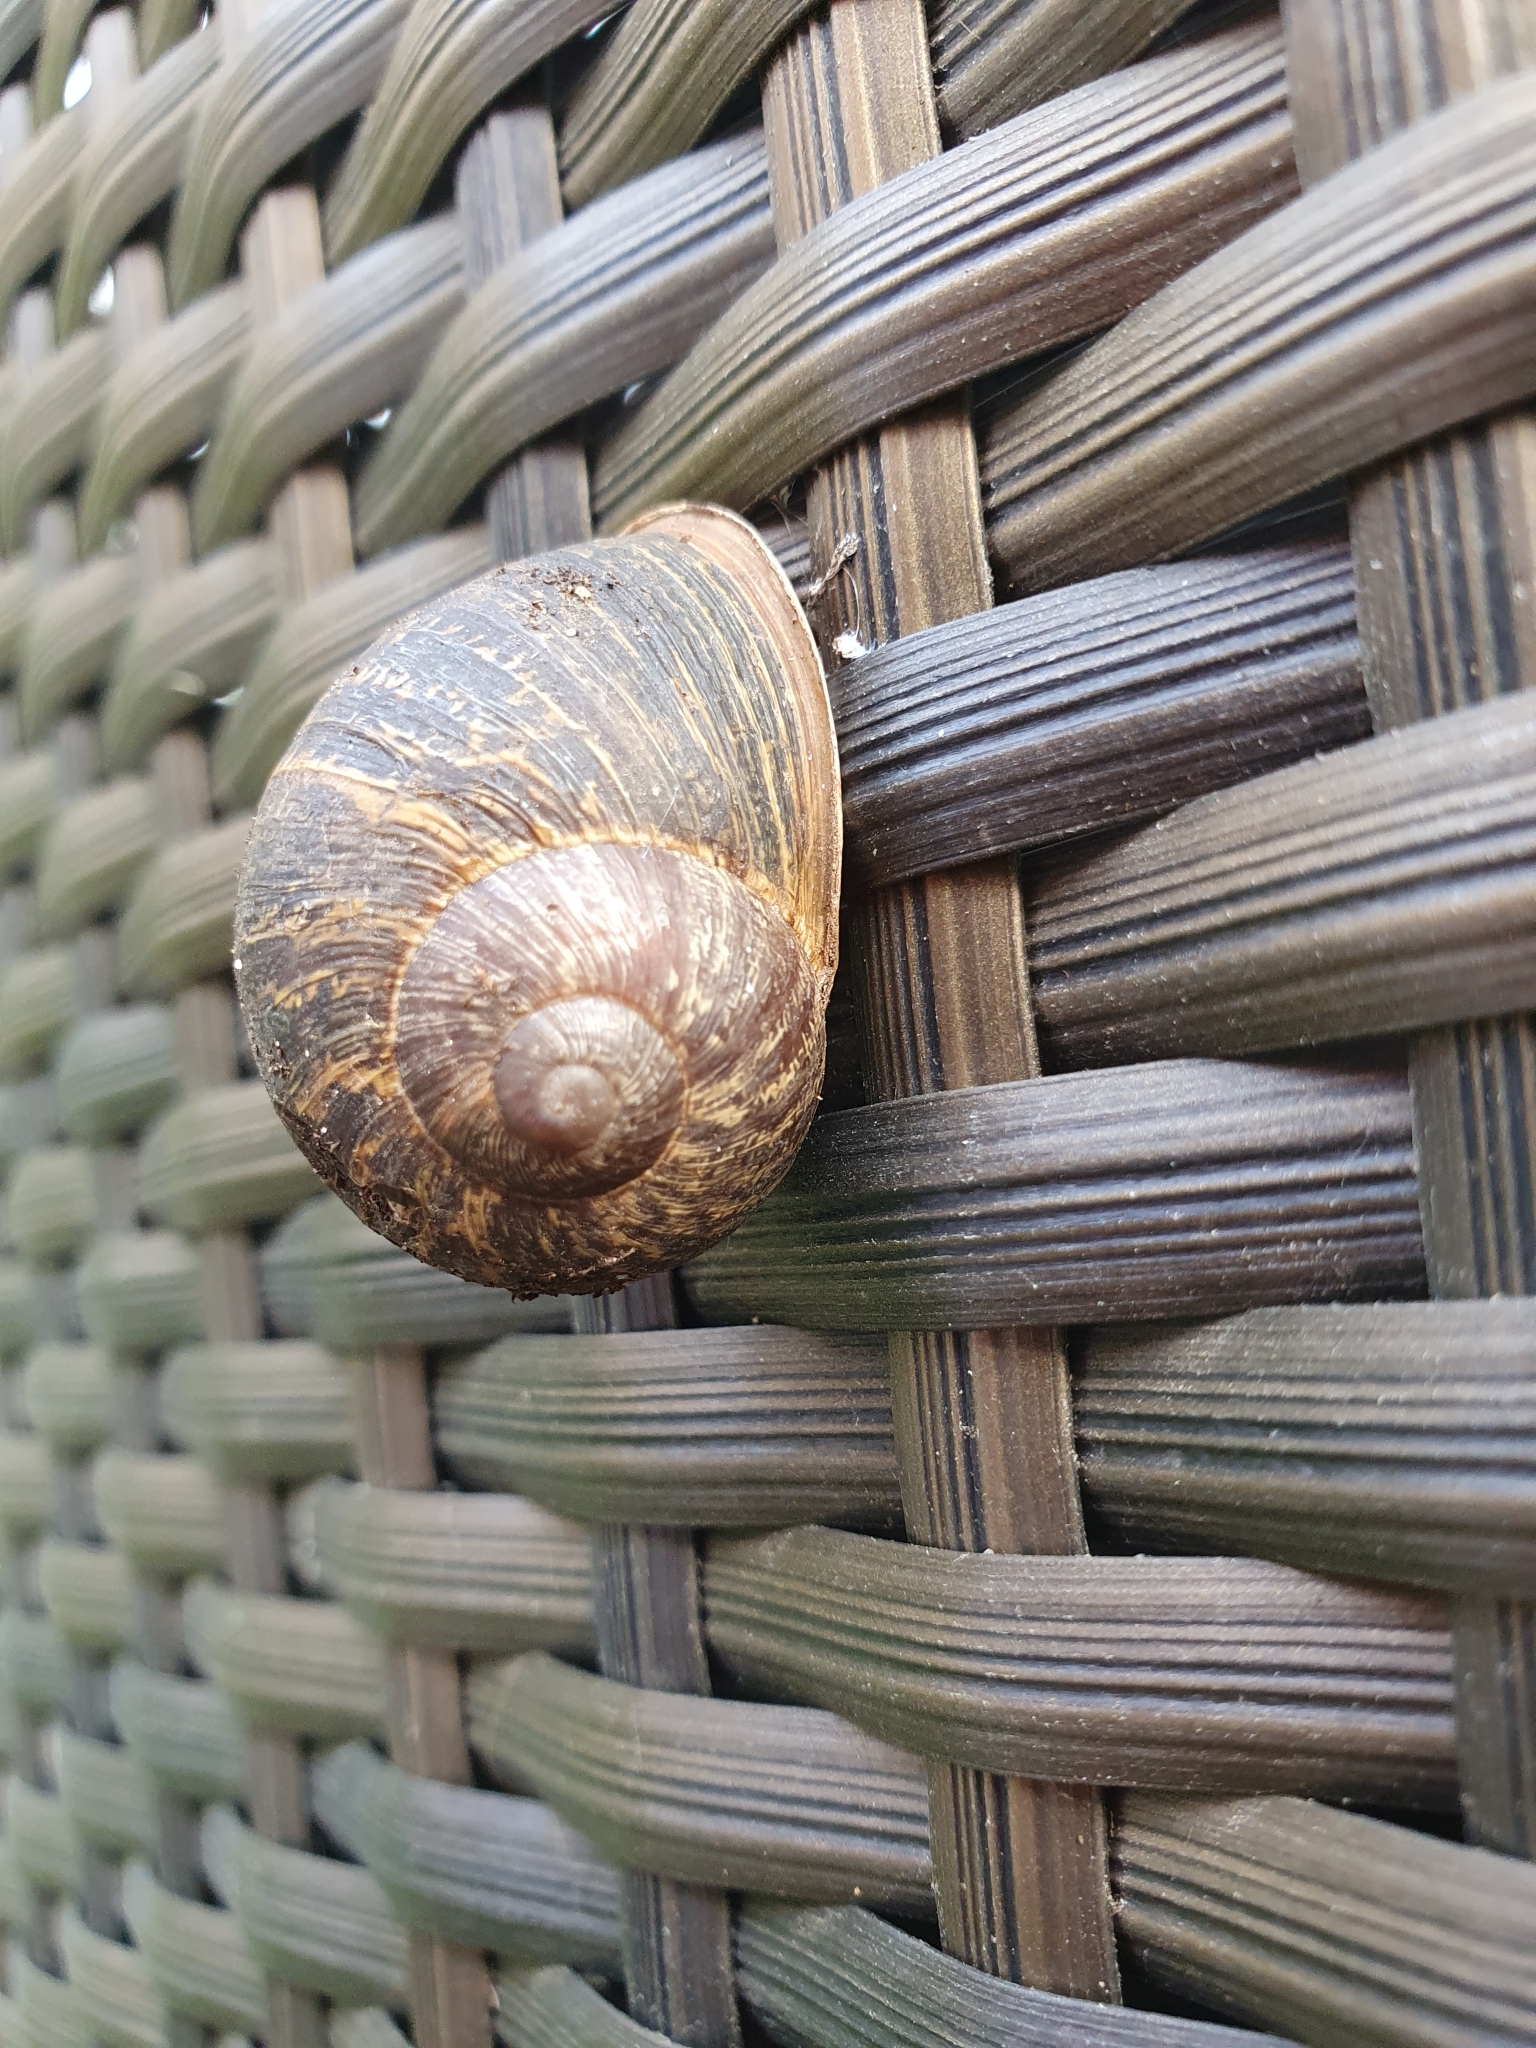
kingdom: Animalia
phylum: Mollusca
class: Gastropoda
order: Stylommatophora
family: Helicidae
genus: Cornu
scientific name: Cornu aspersum
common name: Brown garden snail
